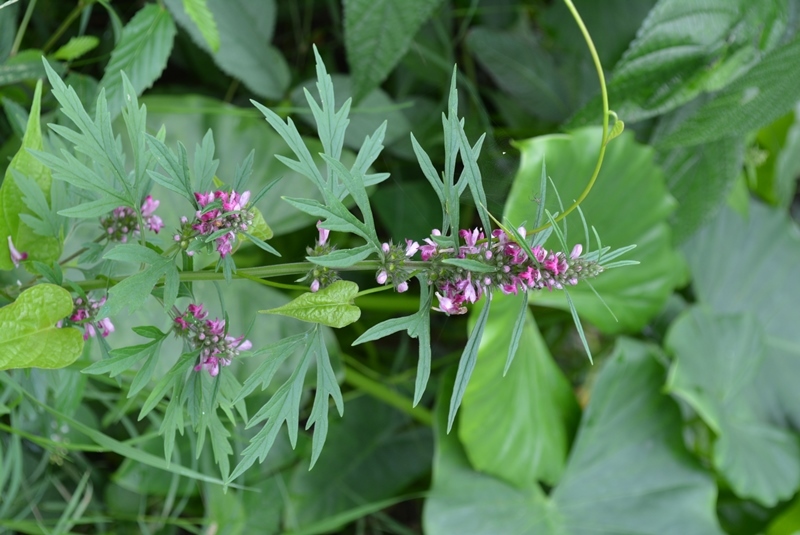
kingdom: Plantae
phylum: Tracheophyta
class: Magnoliopsida
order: Lamiales
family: Lamiaceae
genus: Leonurus
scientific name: Leonurus japonicus
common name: Honeyweed
